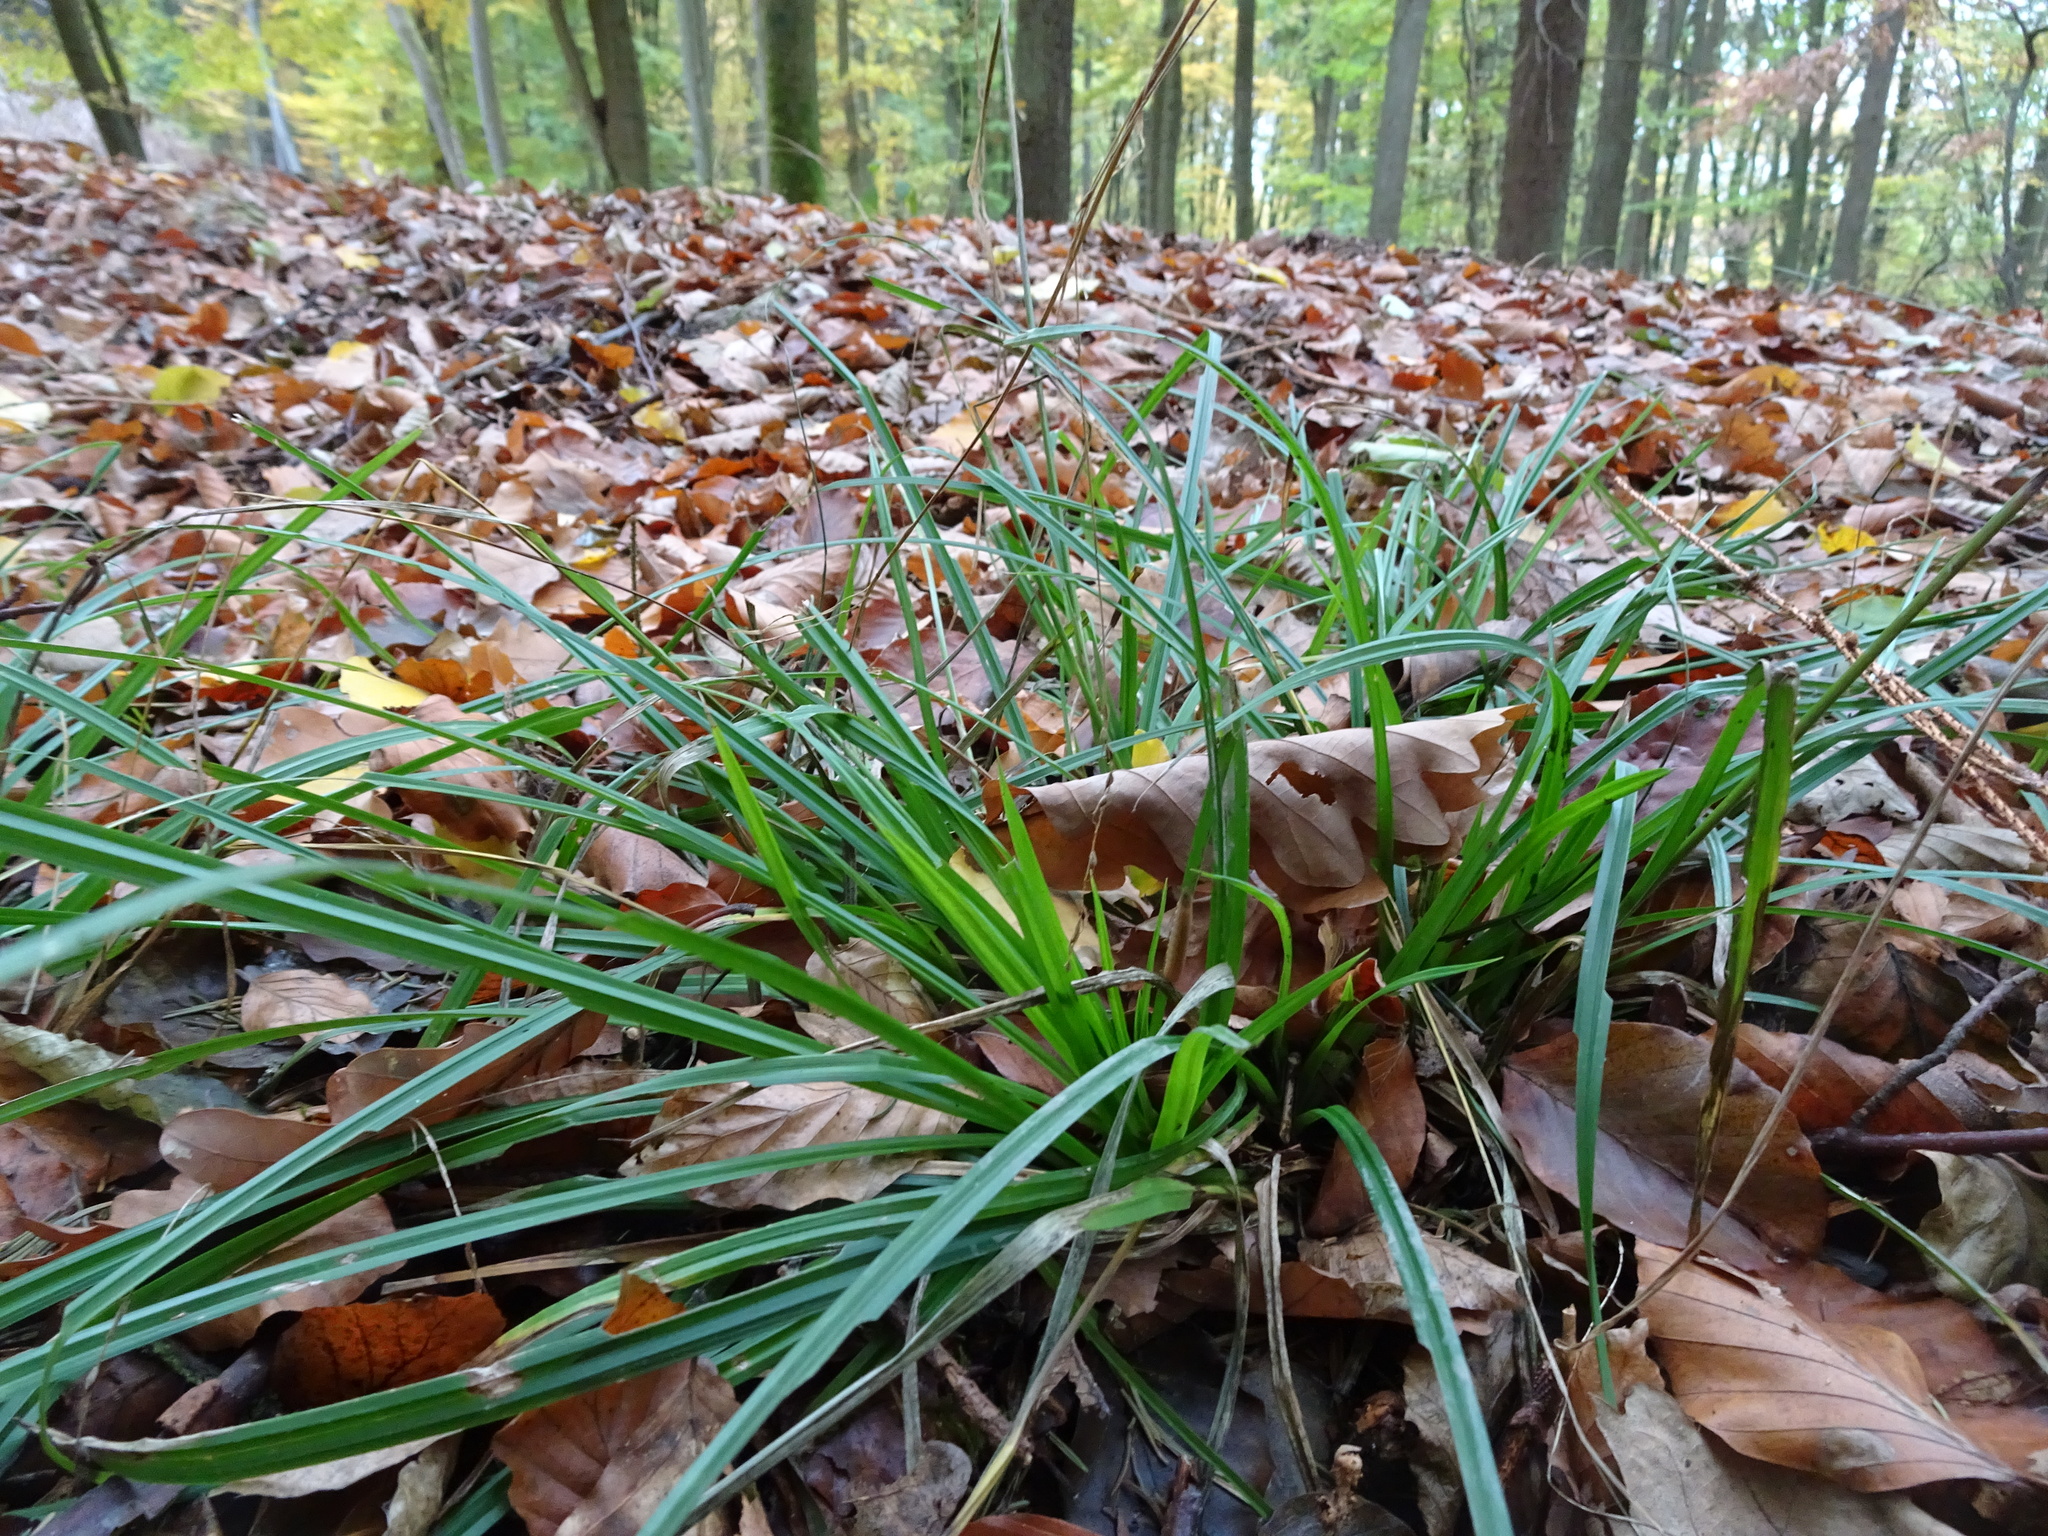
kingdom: Plantae
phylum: Tracheophyta
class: Liliopsida
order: Poales
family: Cyperaceae
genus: Carex
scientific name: Carex sylvatica
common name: Wood-sedge
